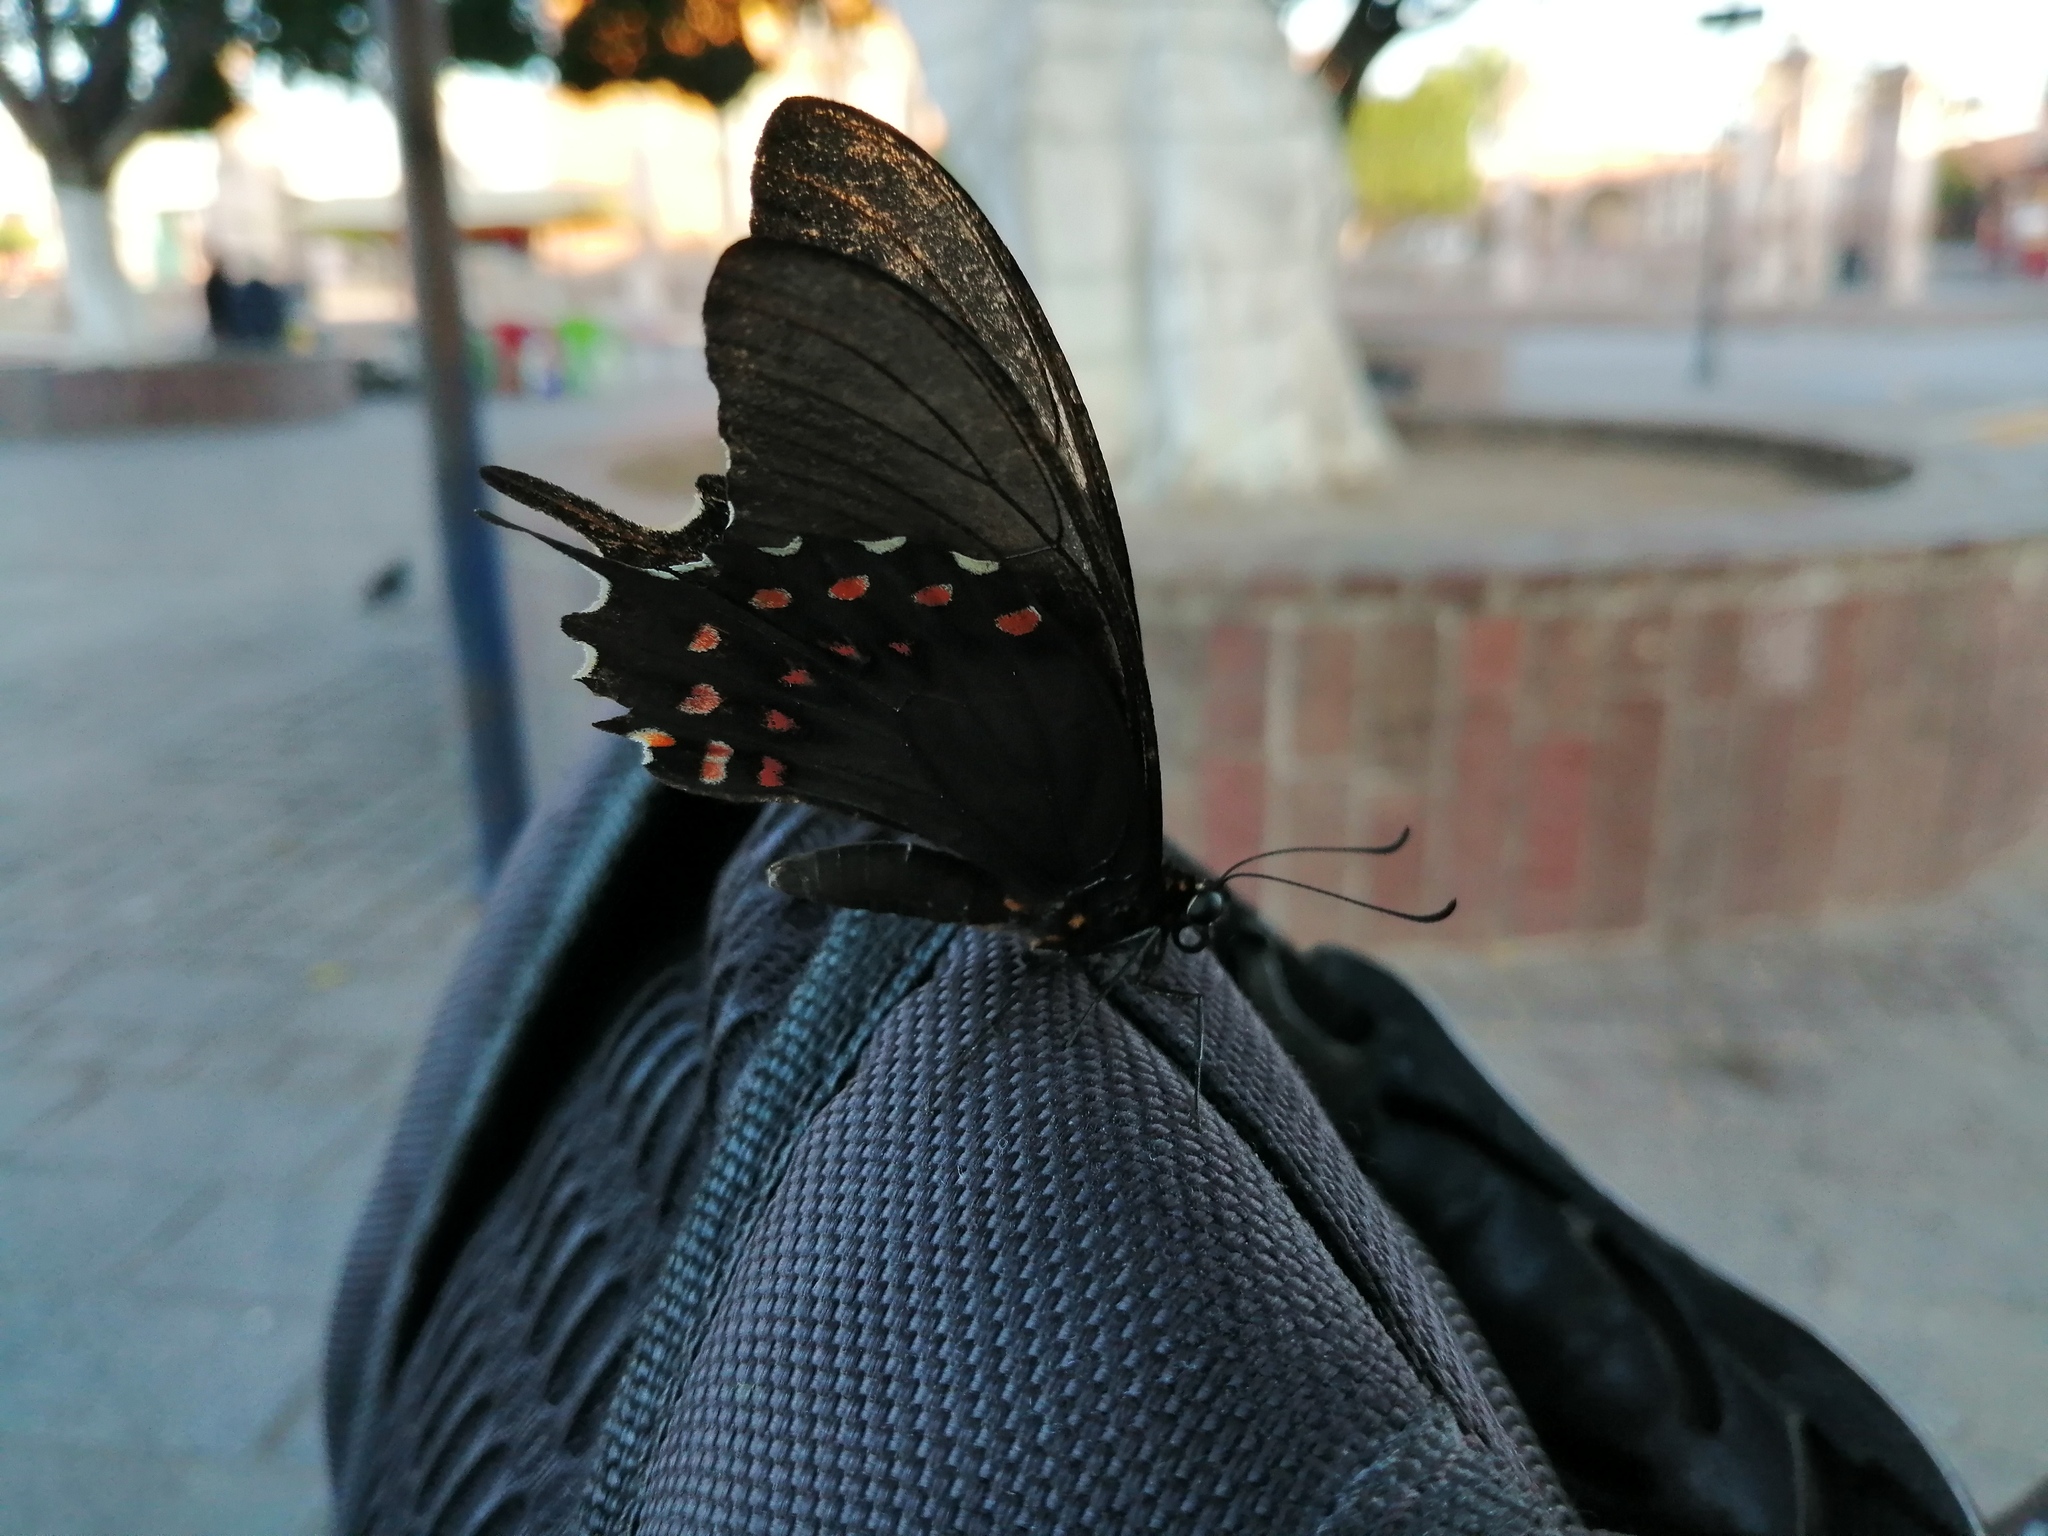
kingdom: Animalia
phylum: Arthropoda
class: Insecta
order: Lepidoptera
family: Papilionidae
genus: Heraclides
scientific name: Heraclides rogeri
